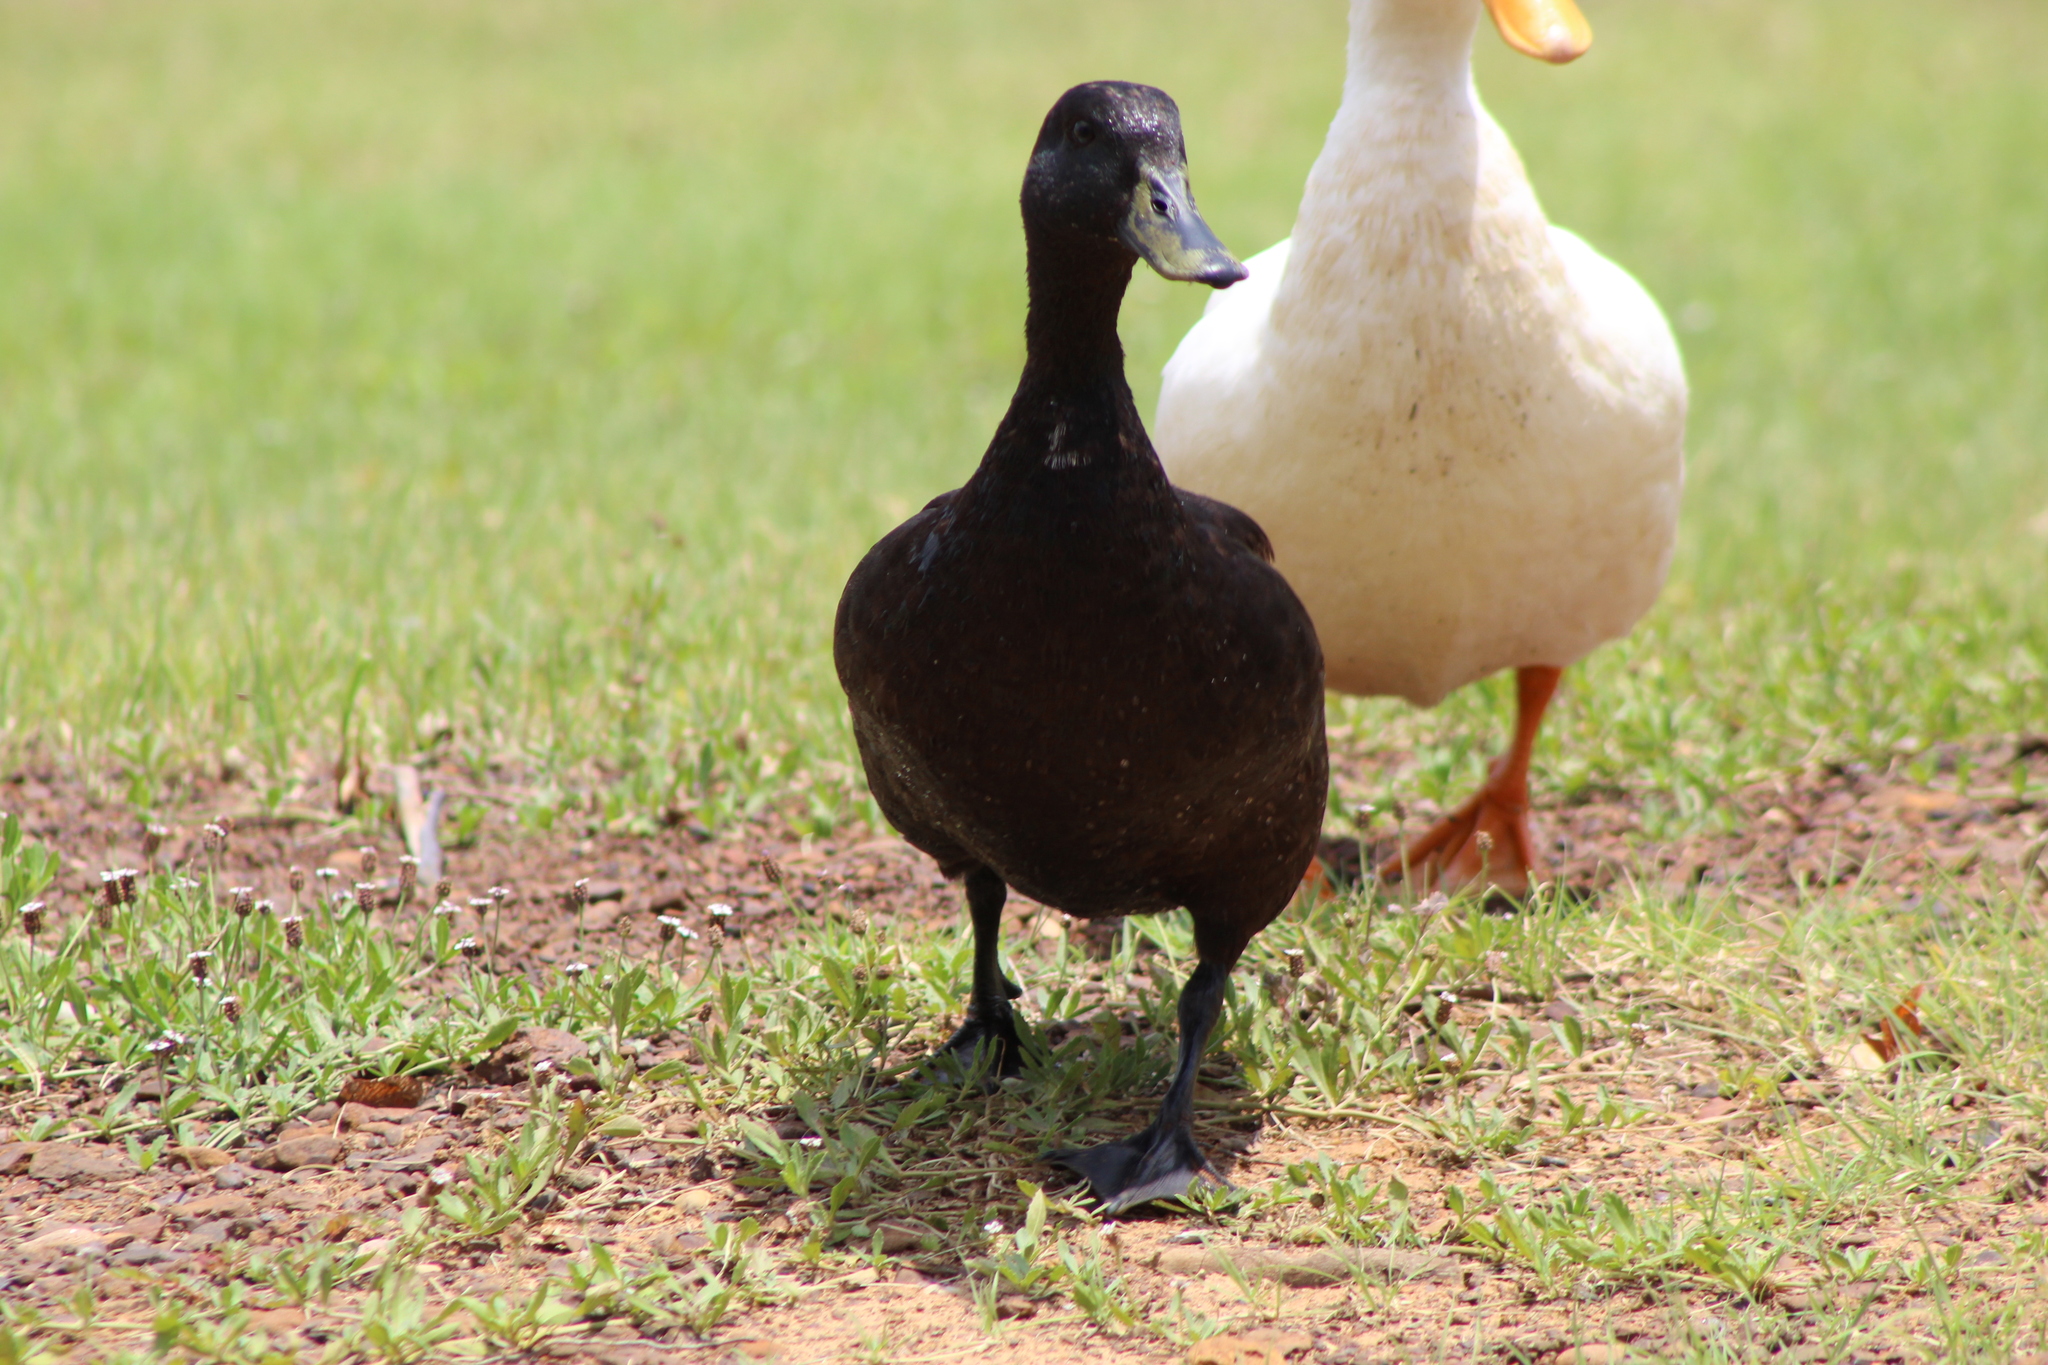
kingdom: Animalia
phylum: Chordata
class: Aves
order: Anseriformes
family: Anatidae
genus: Anas
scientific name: Anas platyrhynchos
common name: Mallard
